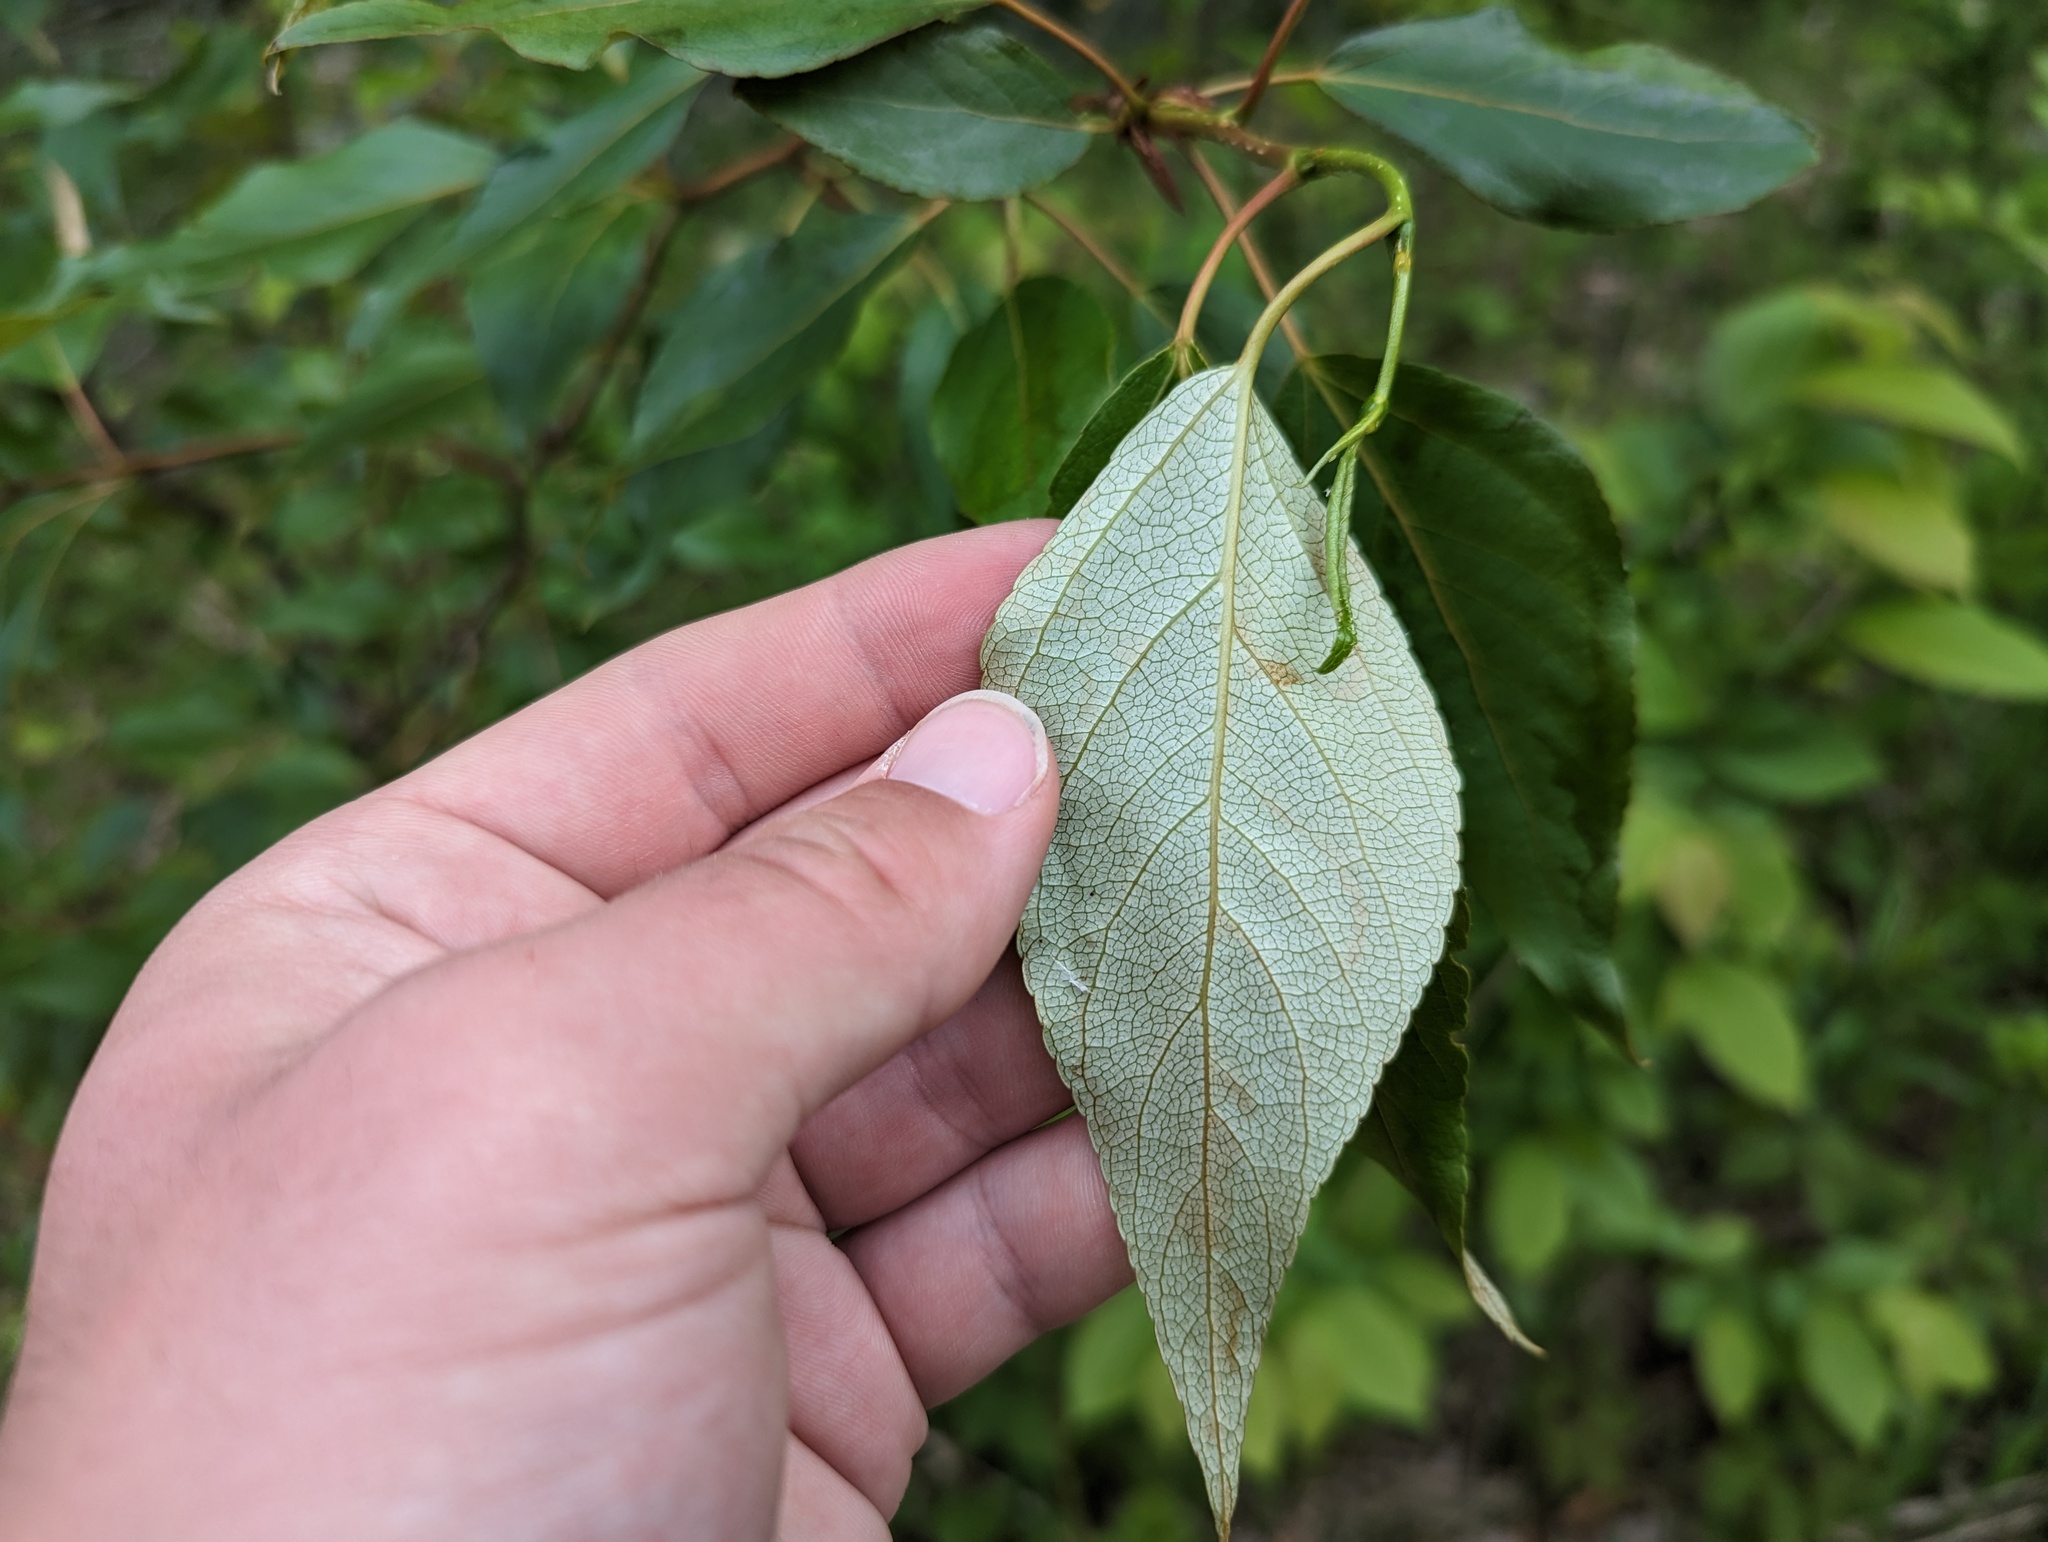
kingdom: Plantae
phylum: Tracheophyta
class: Magnoliopsida
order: Malpighiales
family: Salicaceae
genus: Populus
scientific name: Populus balsamifera
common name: Balsam poplar
